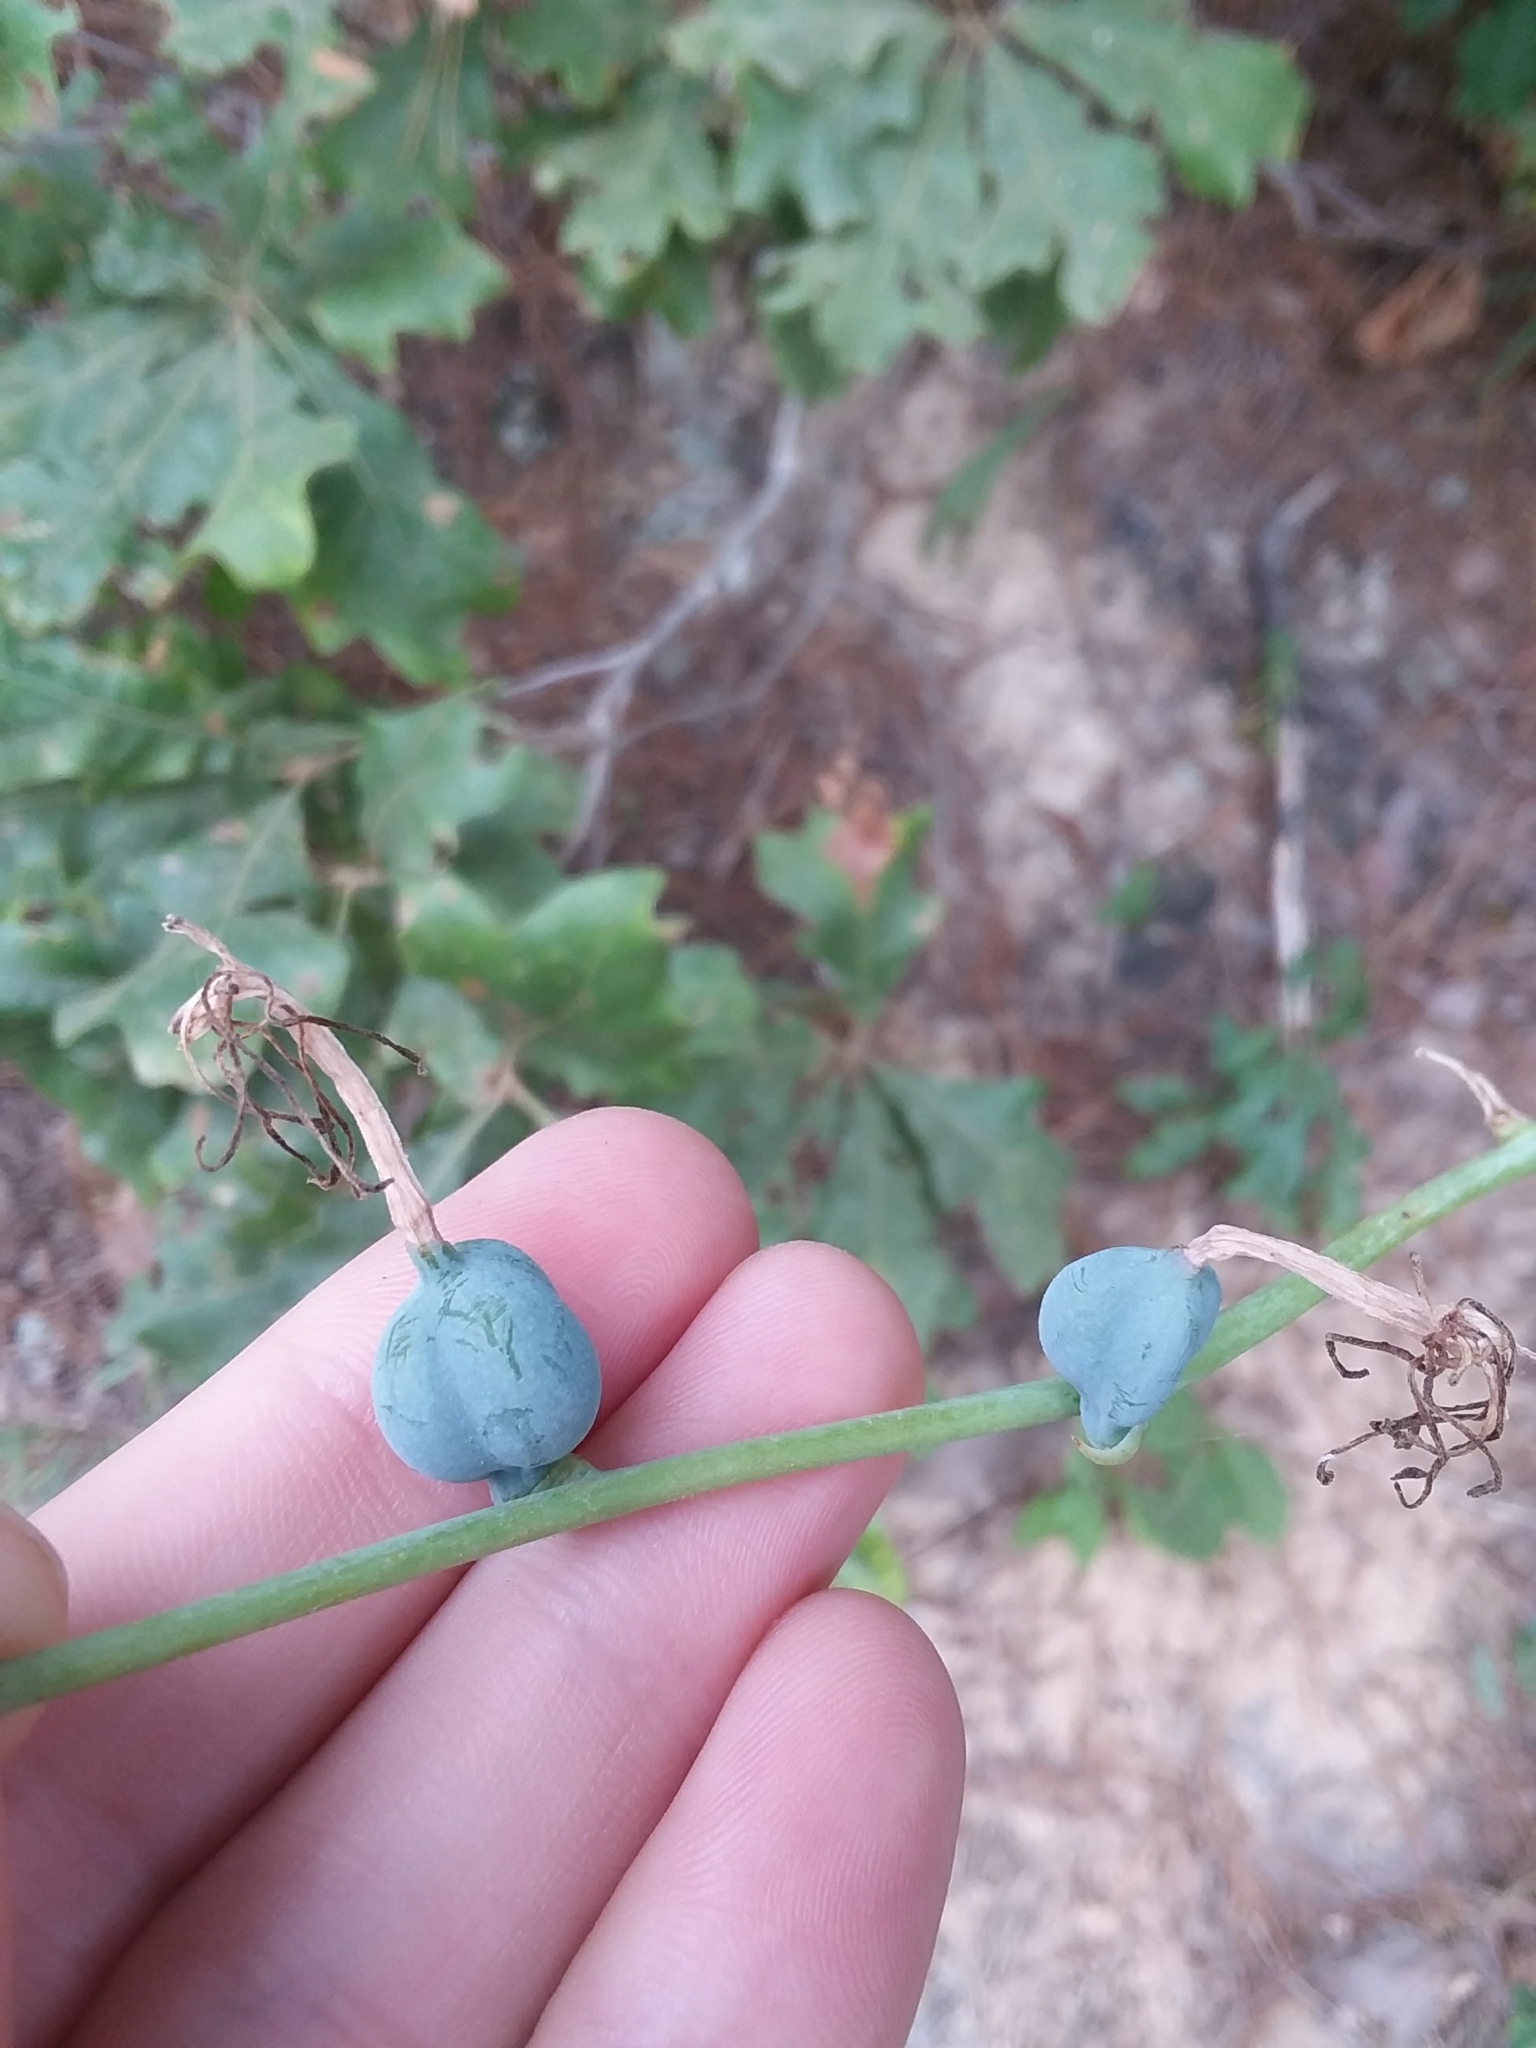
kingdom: Plantae
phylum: Tracheophyta
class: Liliopsida
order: Asparagales
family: Asparagaceae
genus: Agave
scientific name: Agave virginica
